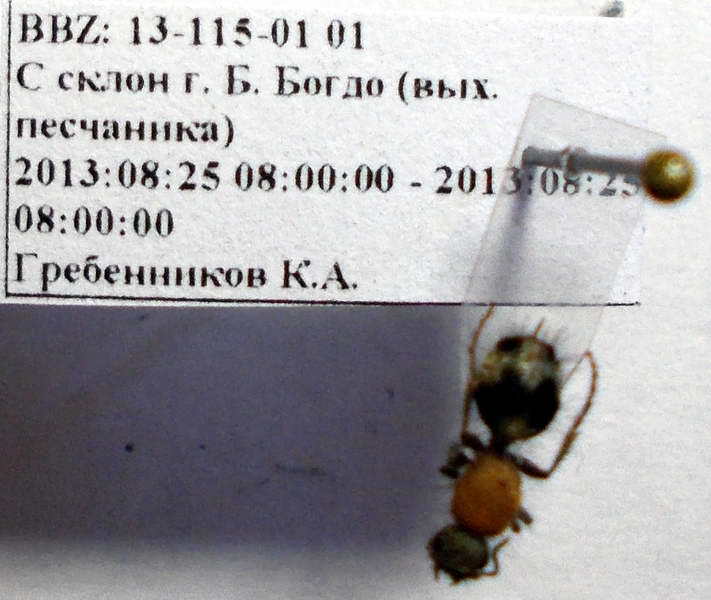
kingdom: Animalia
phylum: Arthropoda
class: Insecta
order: Hymenoptera
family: Mutillidae
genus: Dasylabris
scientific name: Dasylabris regalis
